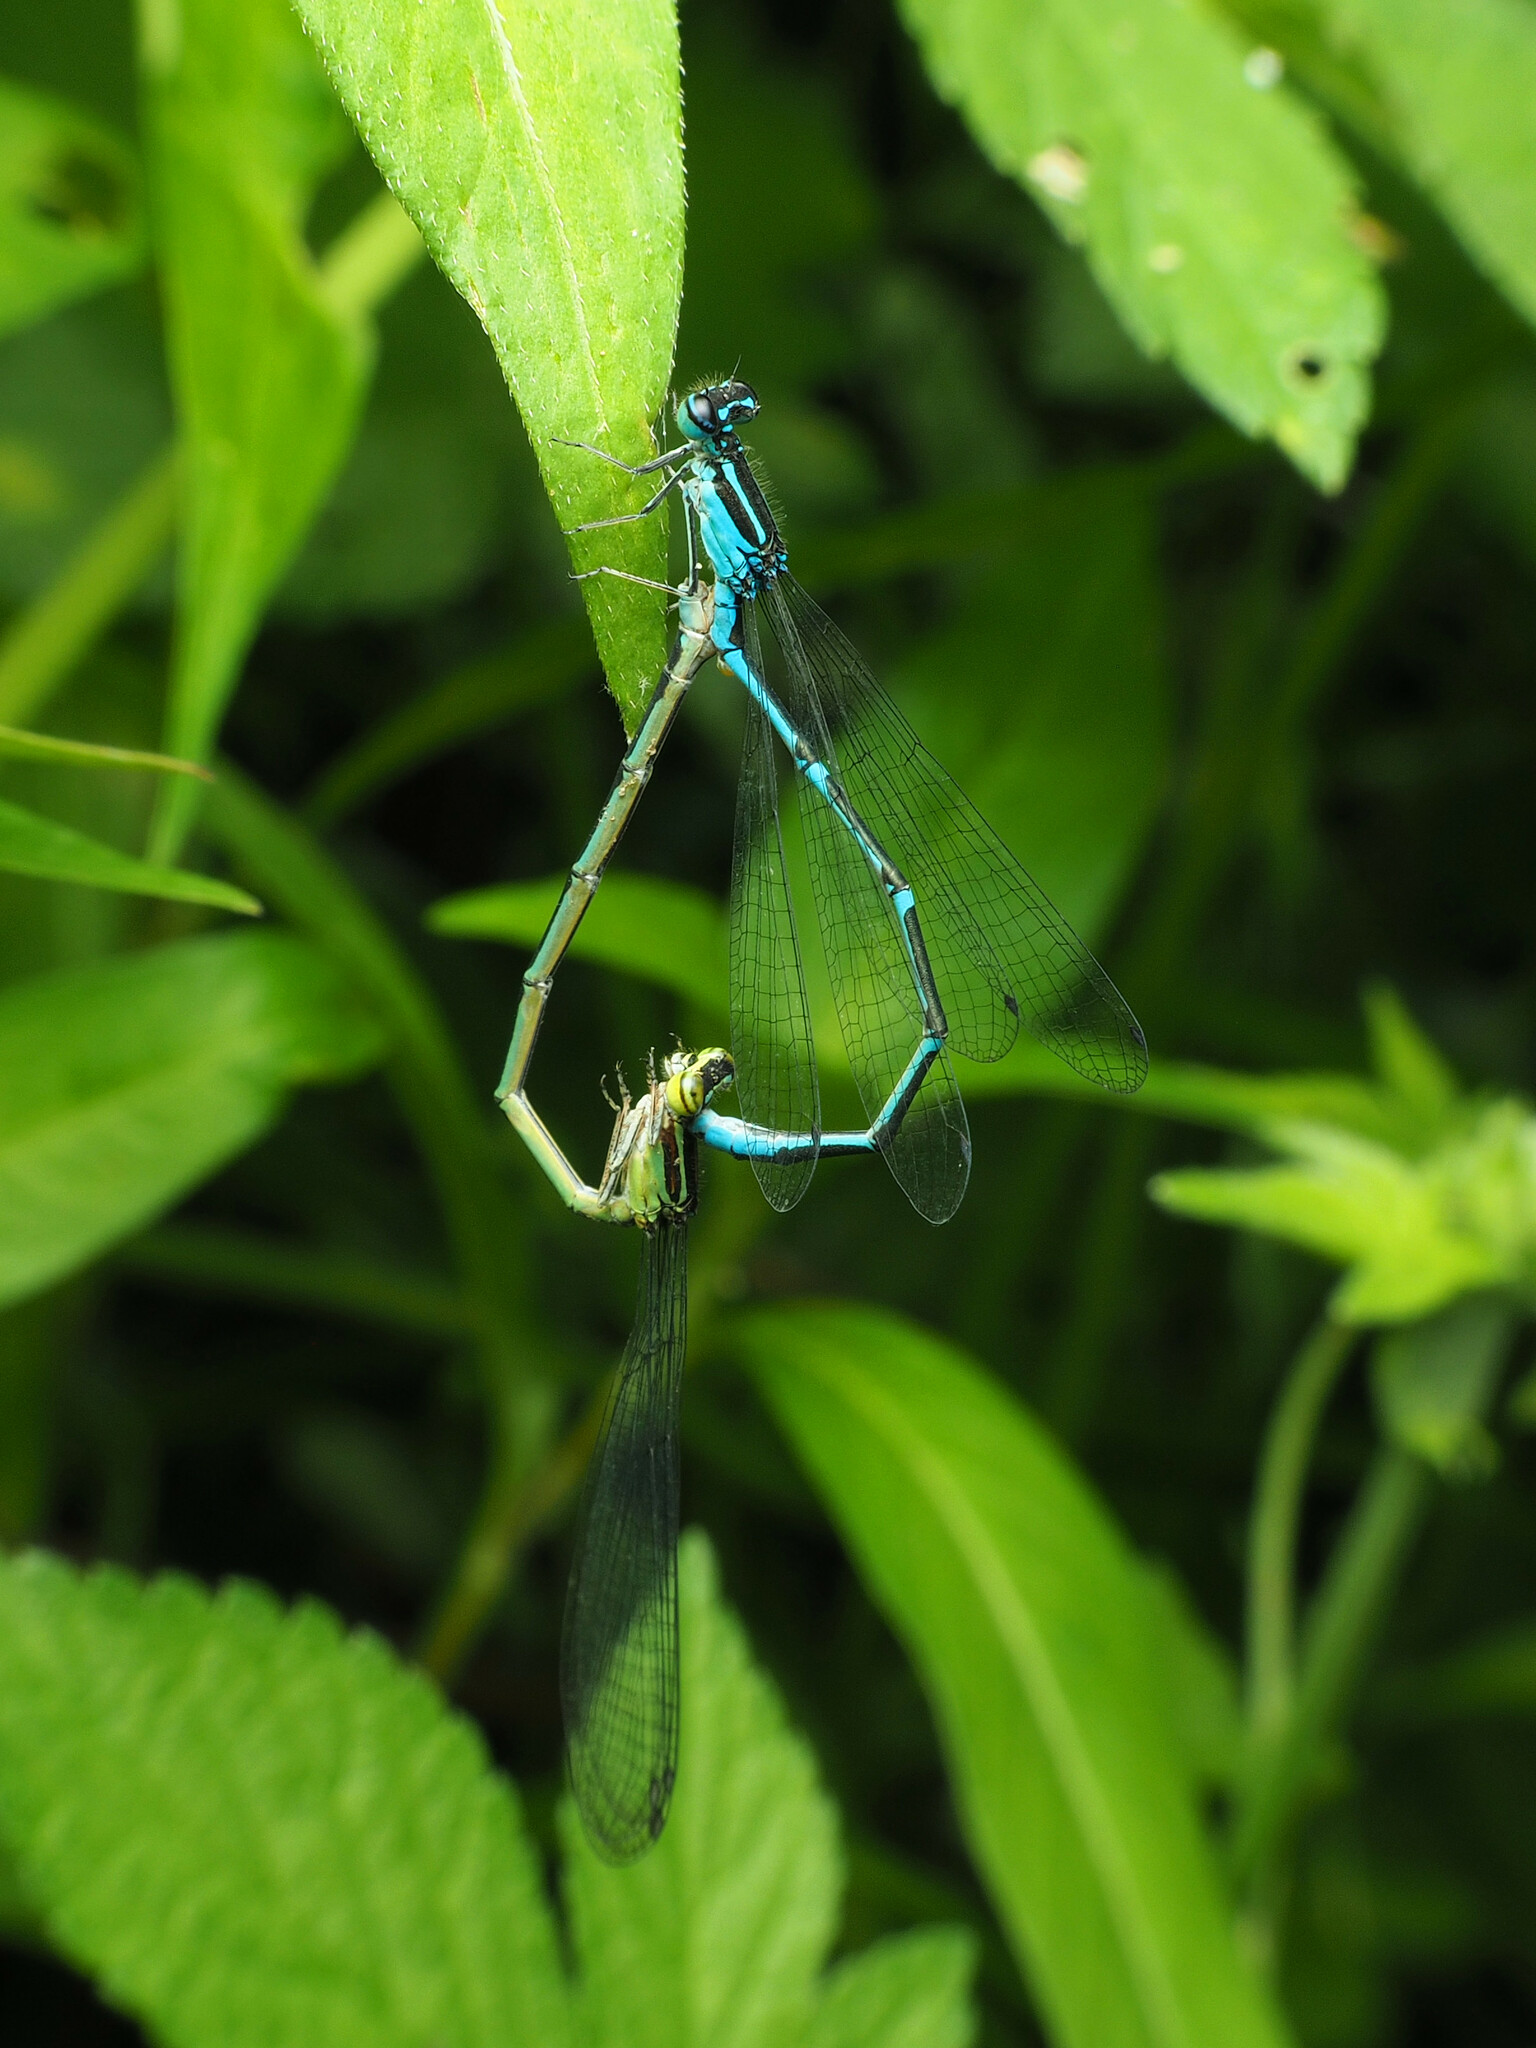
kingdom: Animalia
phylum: Arthropoda
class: Insecta
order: Odonata
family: Coenagrionidae
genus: Enallagma
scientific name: Enallagma exsulans
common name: Stream bluet
